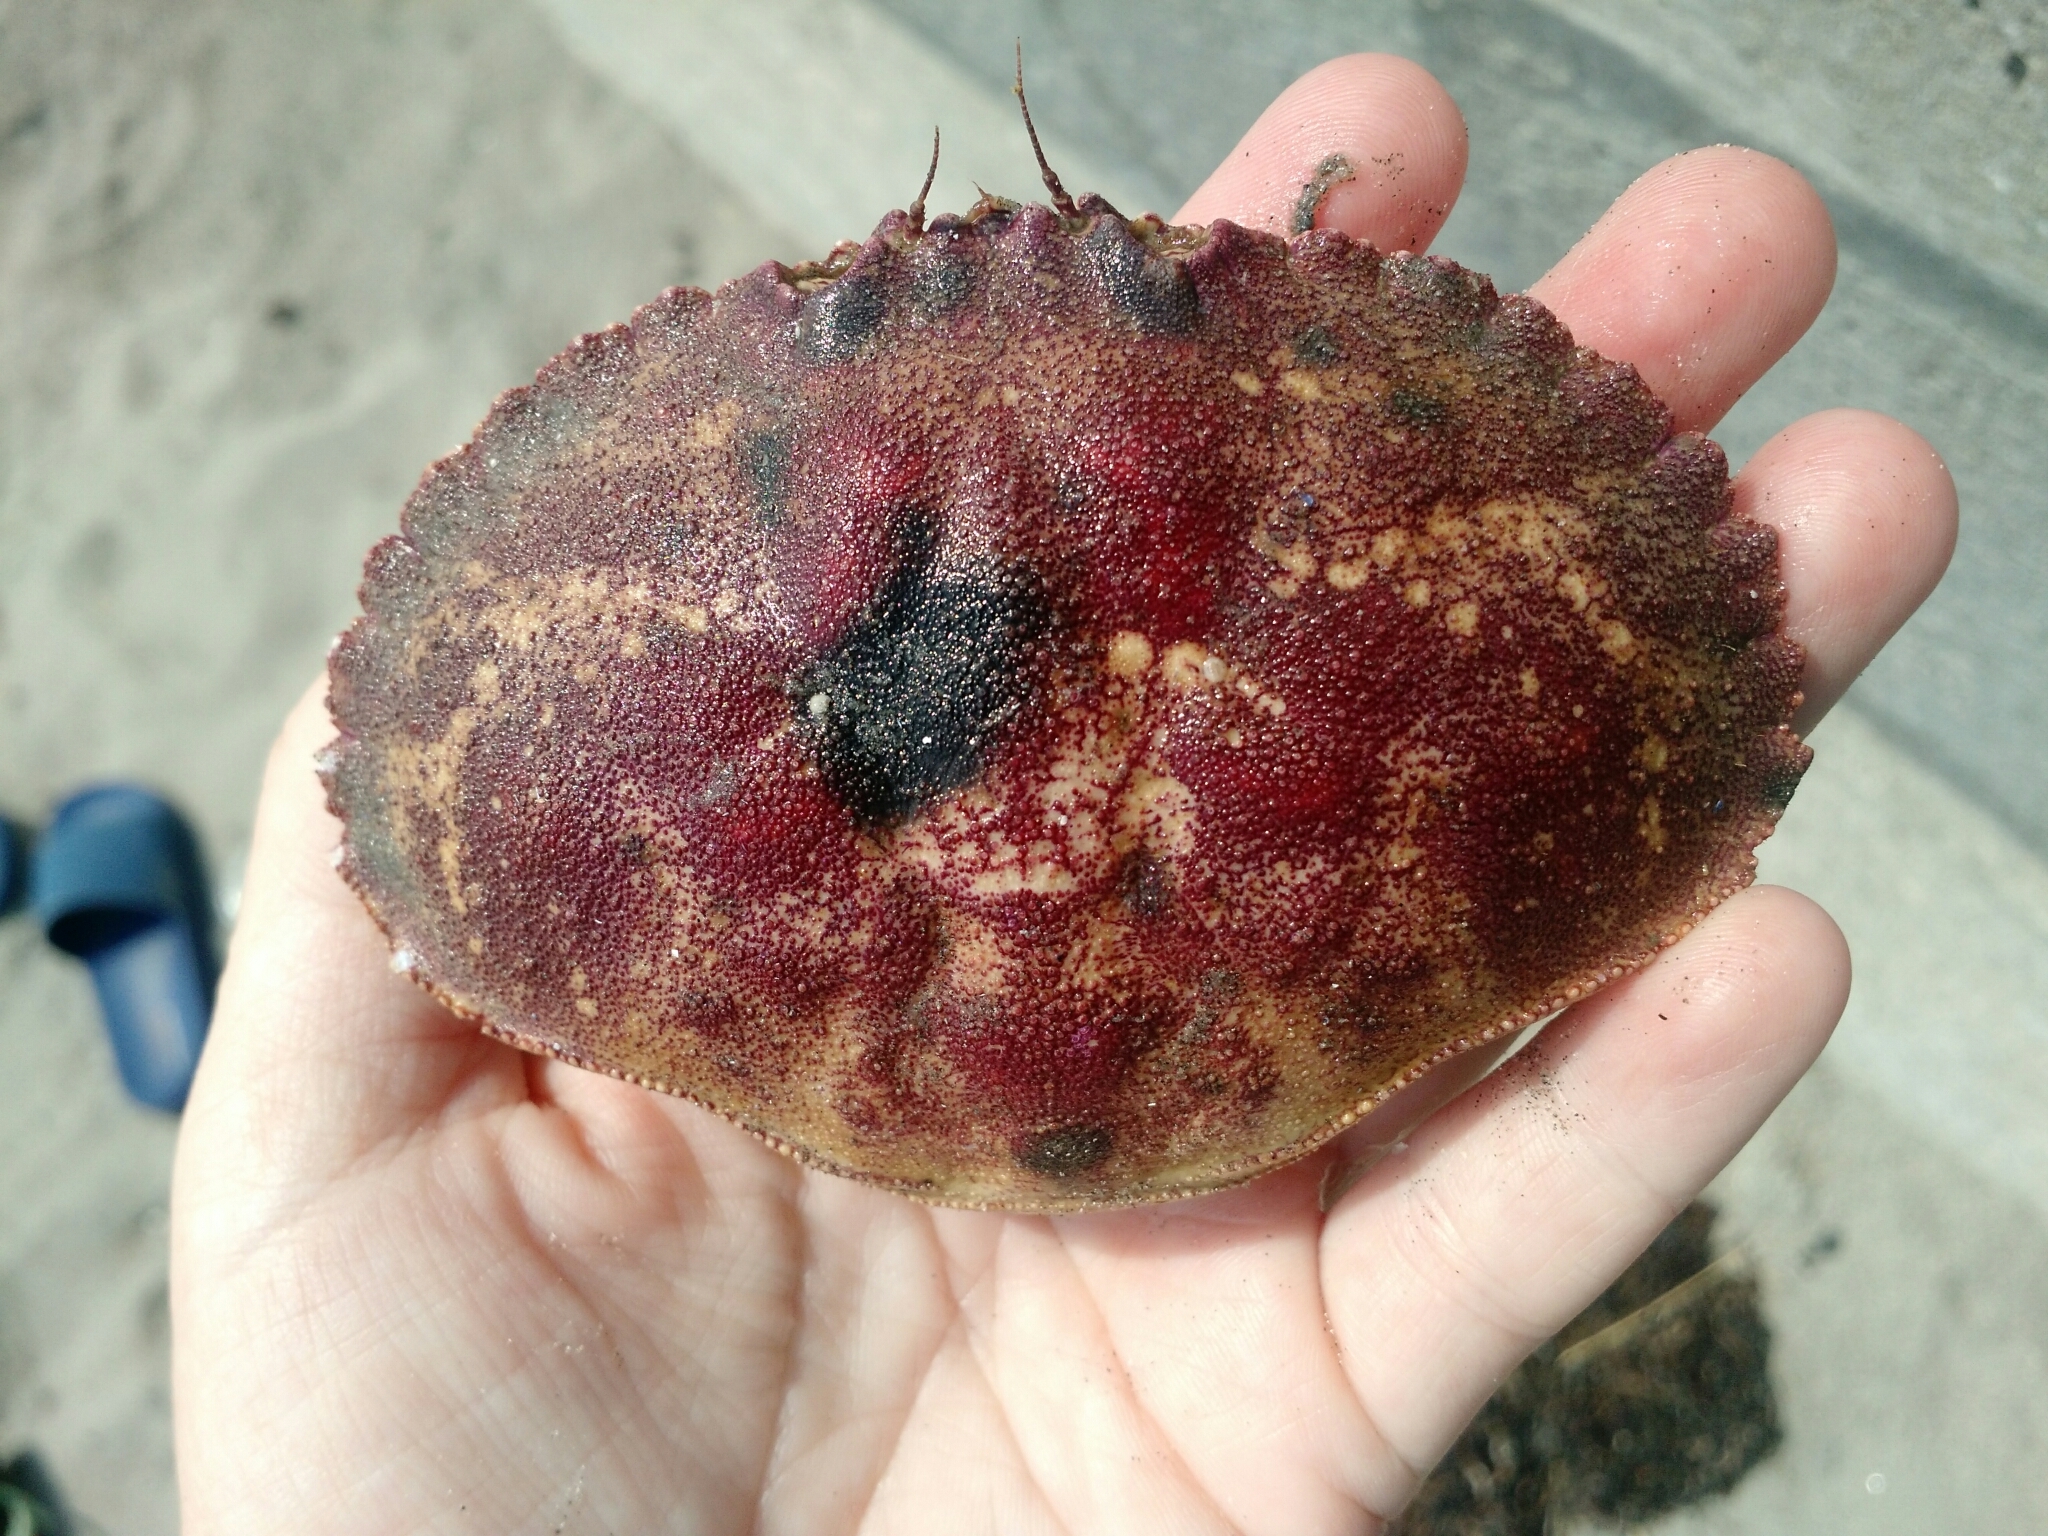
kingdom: Animalia
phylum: Arthropoda
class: Malacostraca
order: Decapoda
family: Cancridae
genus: Cancer
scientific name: Cancer borealis
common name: Jonah crab
